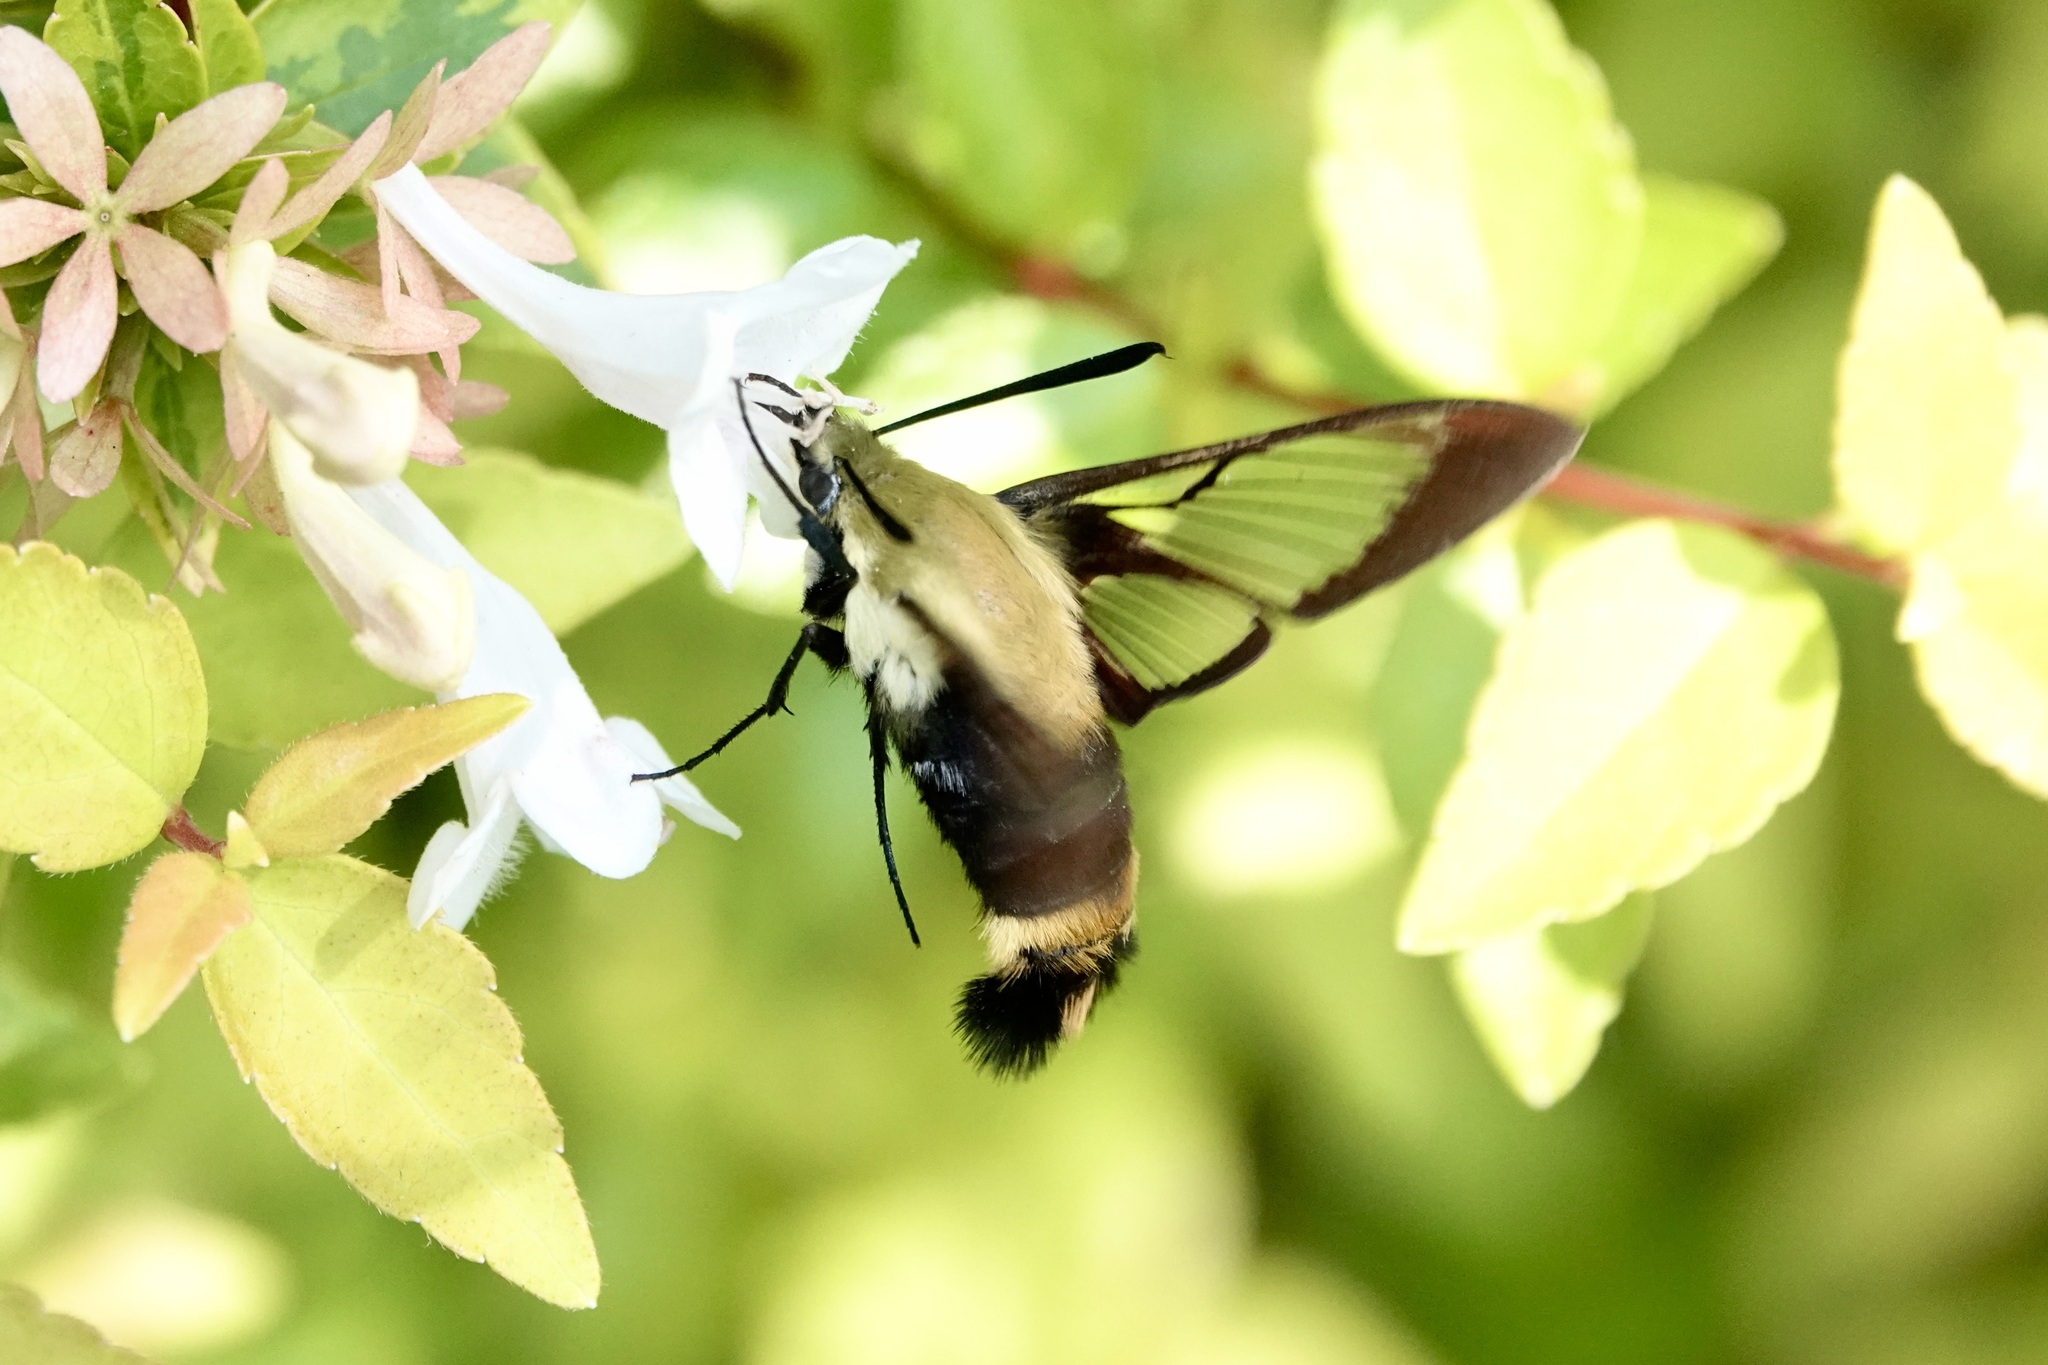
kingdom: Animalia
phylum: Arthropoda
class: Insecta
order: Lepidoptera
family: Sphingidae
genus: Hemaris
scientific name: Hemaris diffinis
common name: Bumblebee moth
